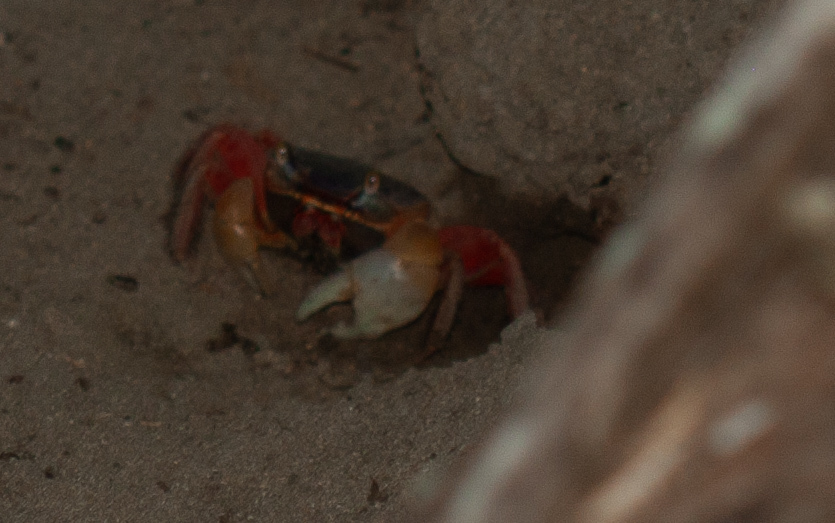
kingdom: Animalia
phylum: Arthropoda
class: Malacostraca
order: Decapoda
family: Gecarcinidae
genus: Cardisoma
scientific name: Cardisoma crassum
